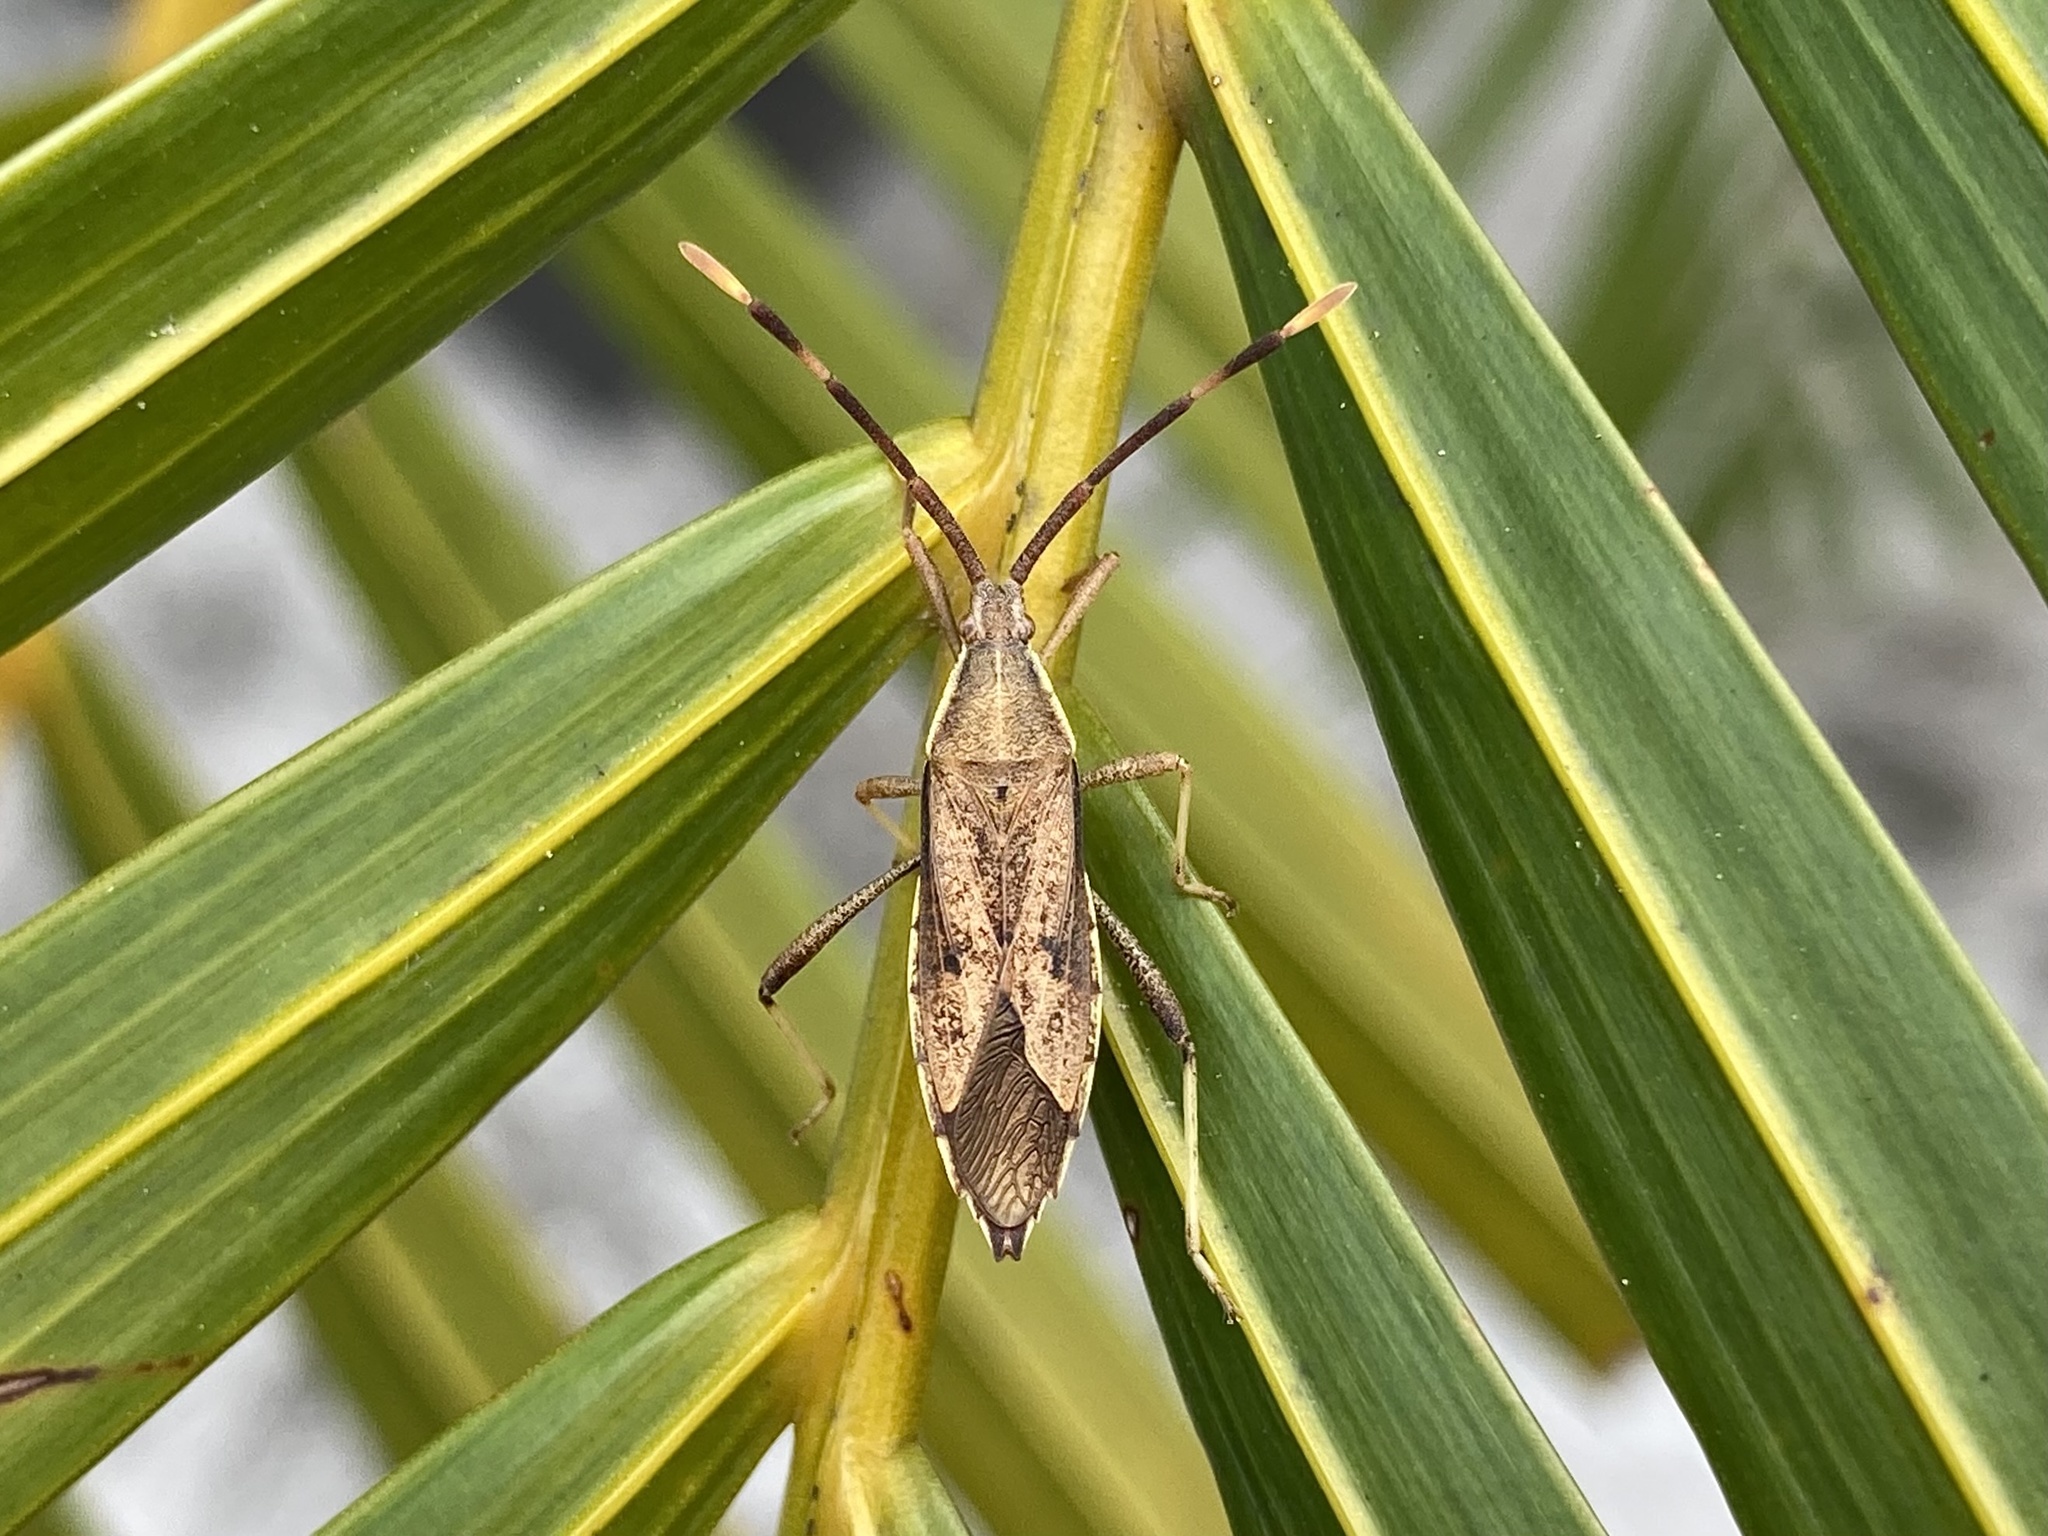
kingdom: Animalia
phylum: Arthropoda
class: Insecta
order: Hemiptera
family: Coreidae
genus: Pomponatius
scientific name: Pomponatius luridus
